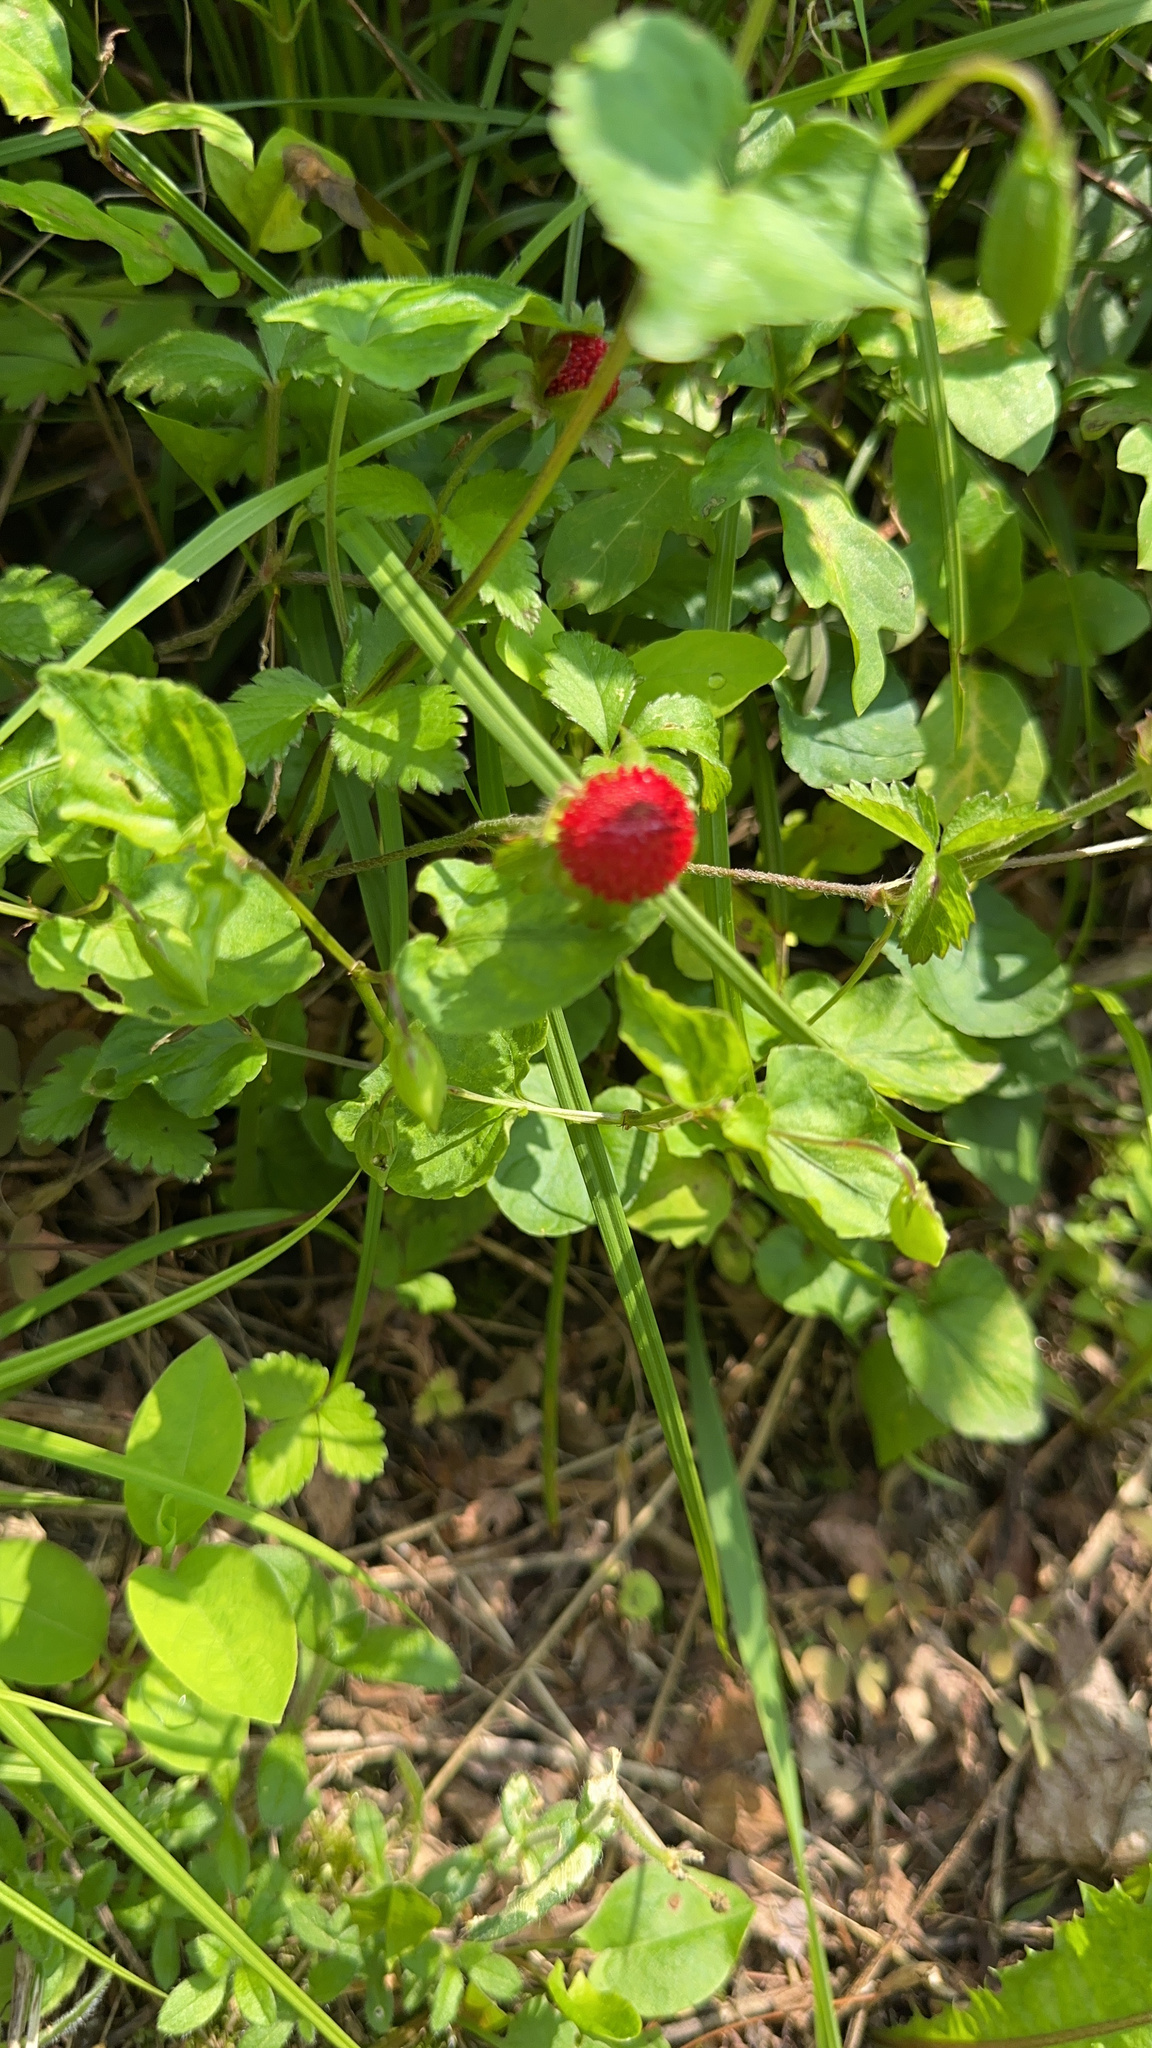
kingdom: Plantae
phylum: Tracheophyta
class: Magnoliopsida
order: Rosales
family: Rosaceae
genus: Potentilla
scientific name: Potentilla indica
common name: Yellow-flowered strawberry
